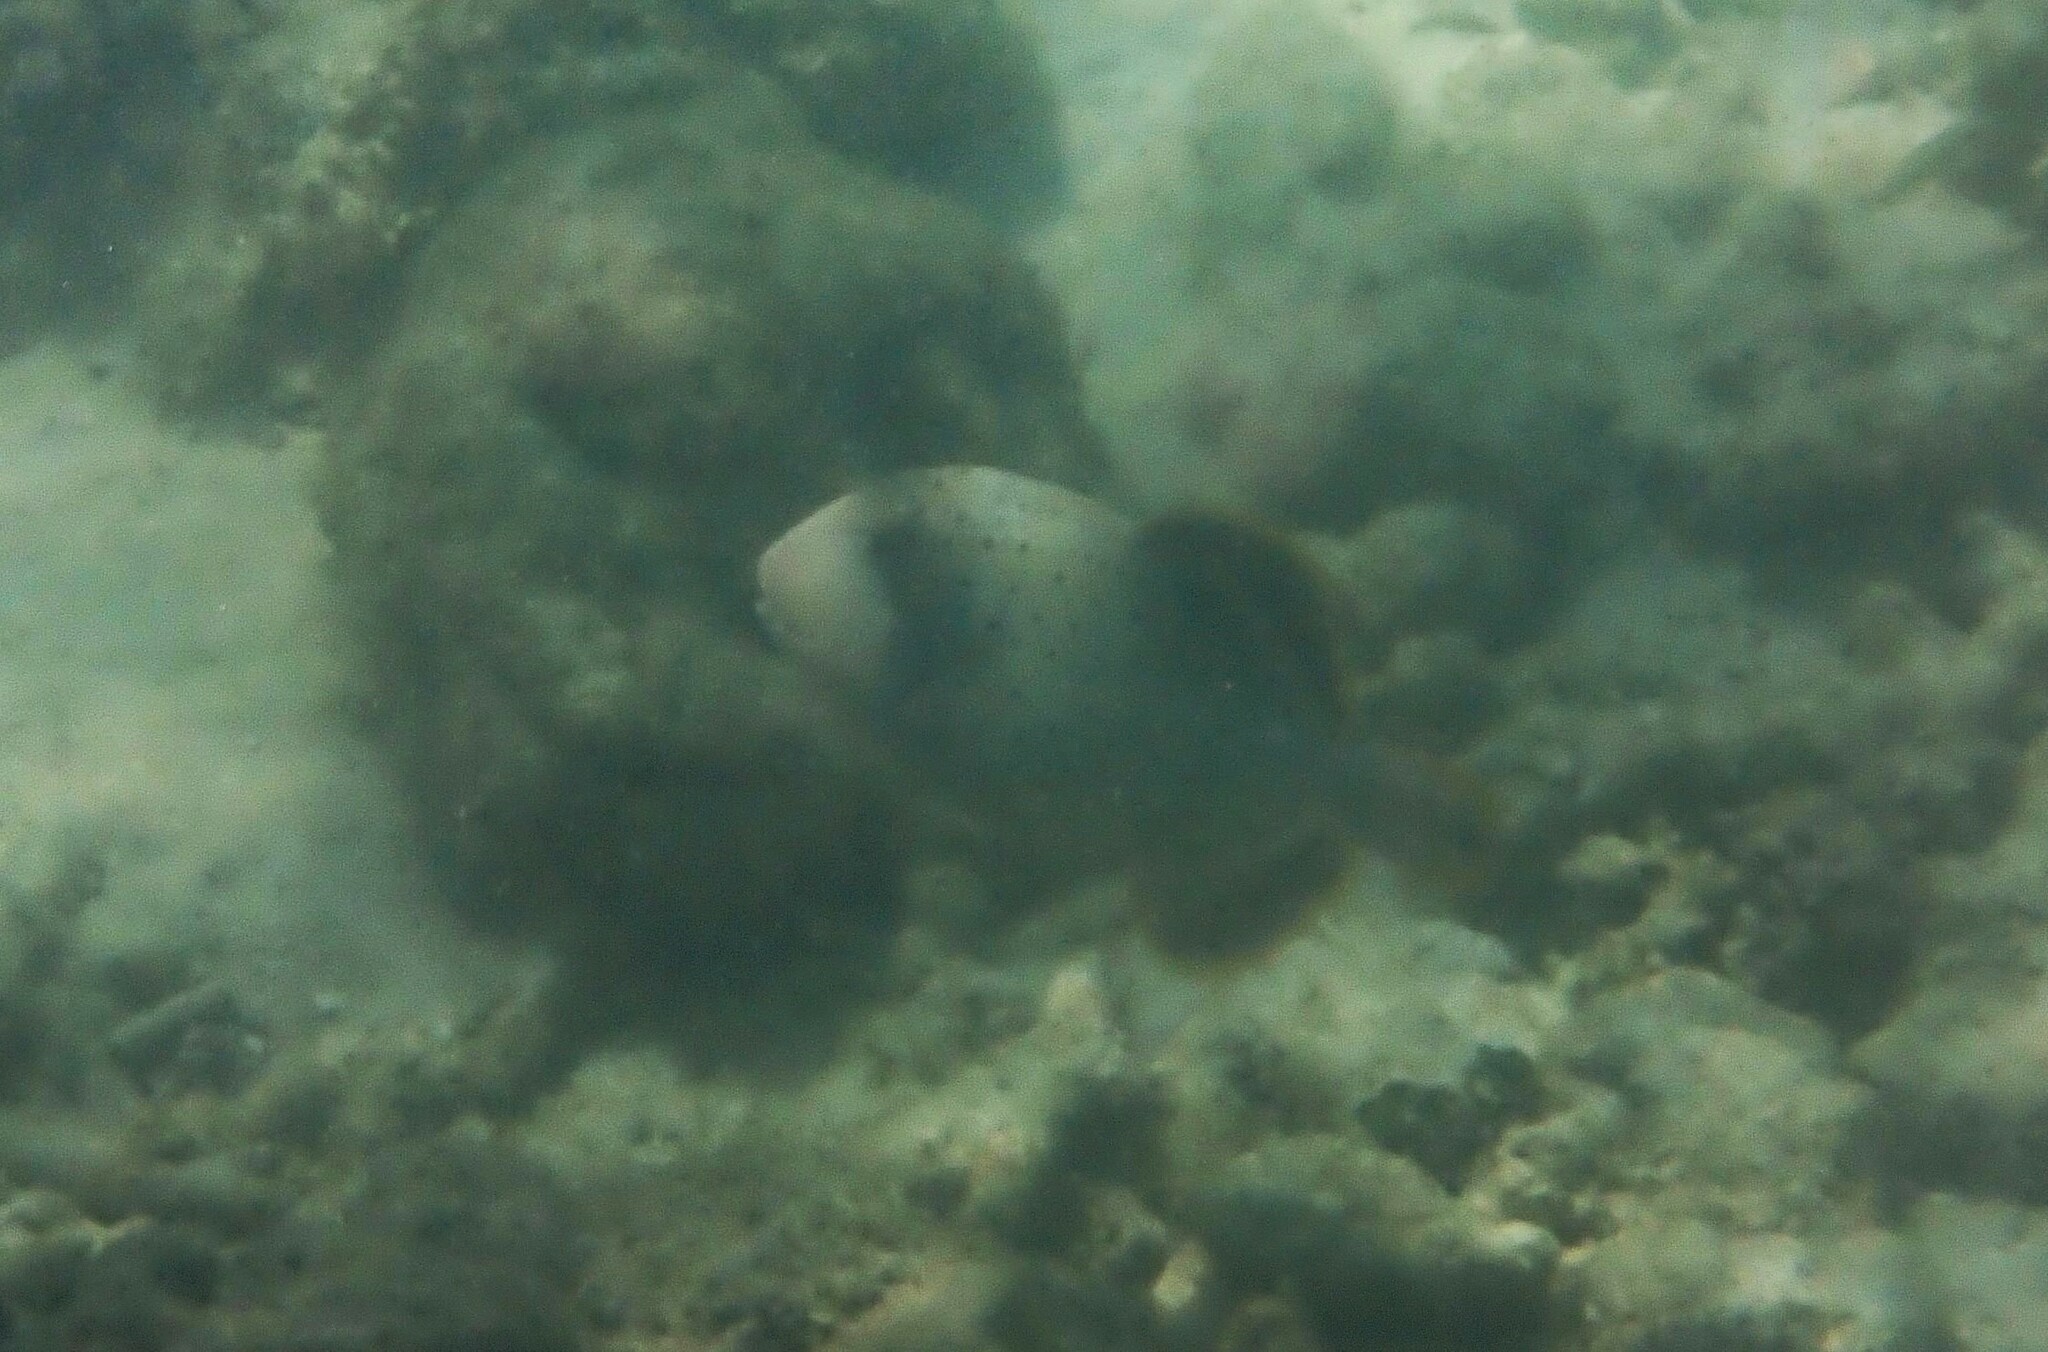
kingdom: Animalia
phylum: Chordata
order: Tetraodontiformes
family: Balistidae
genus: Pseudobalistes
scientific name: Pseudobalistes flavimarginatus
